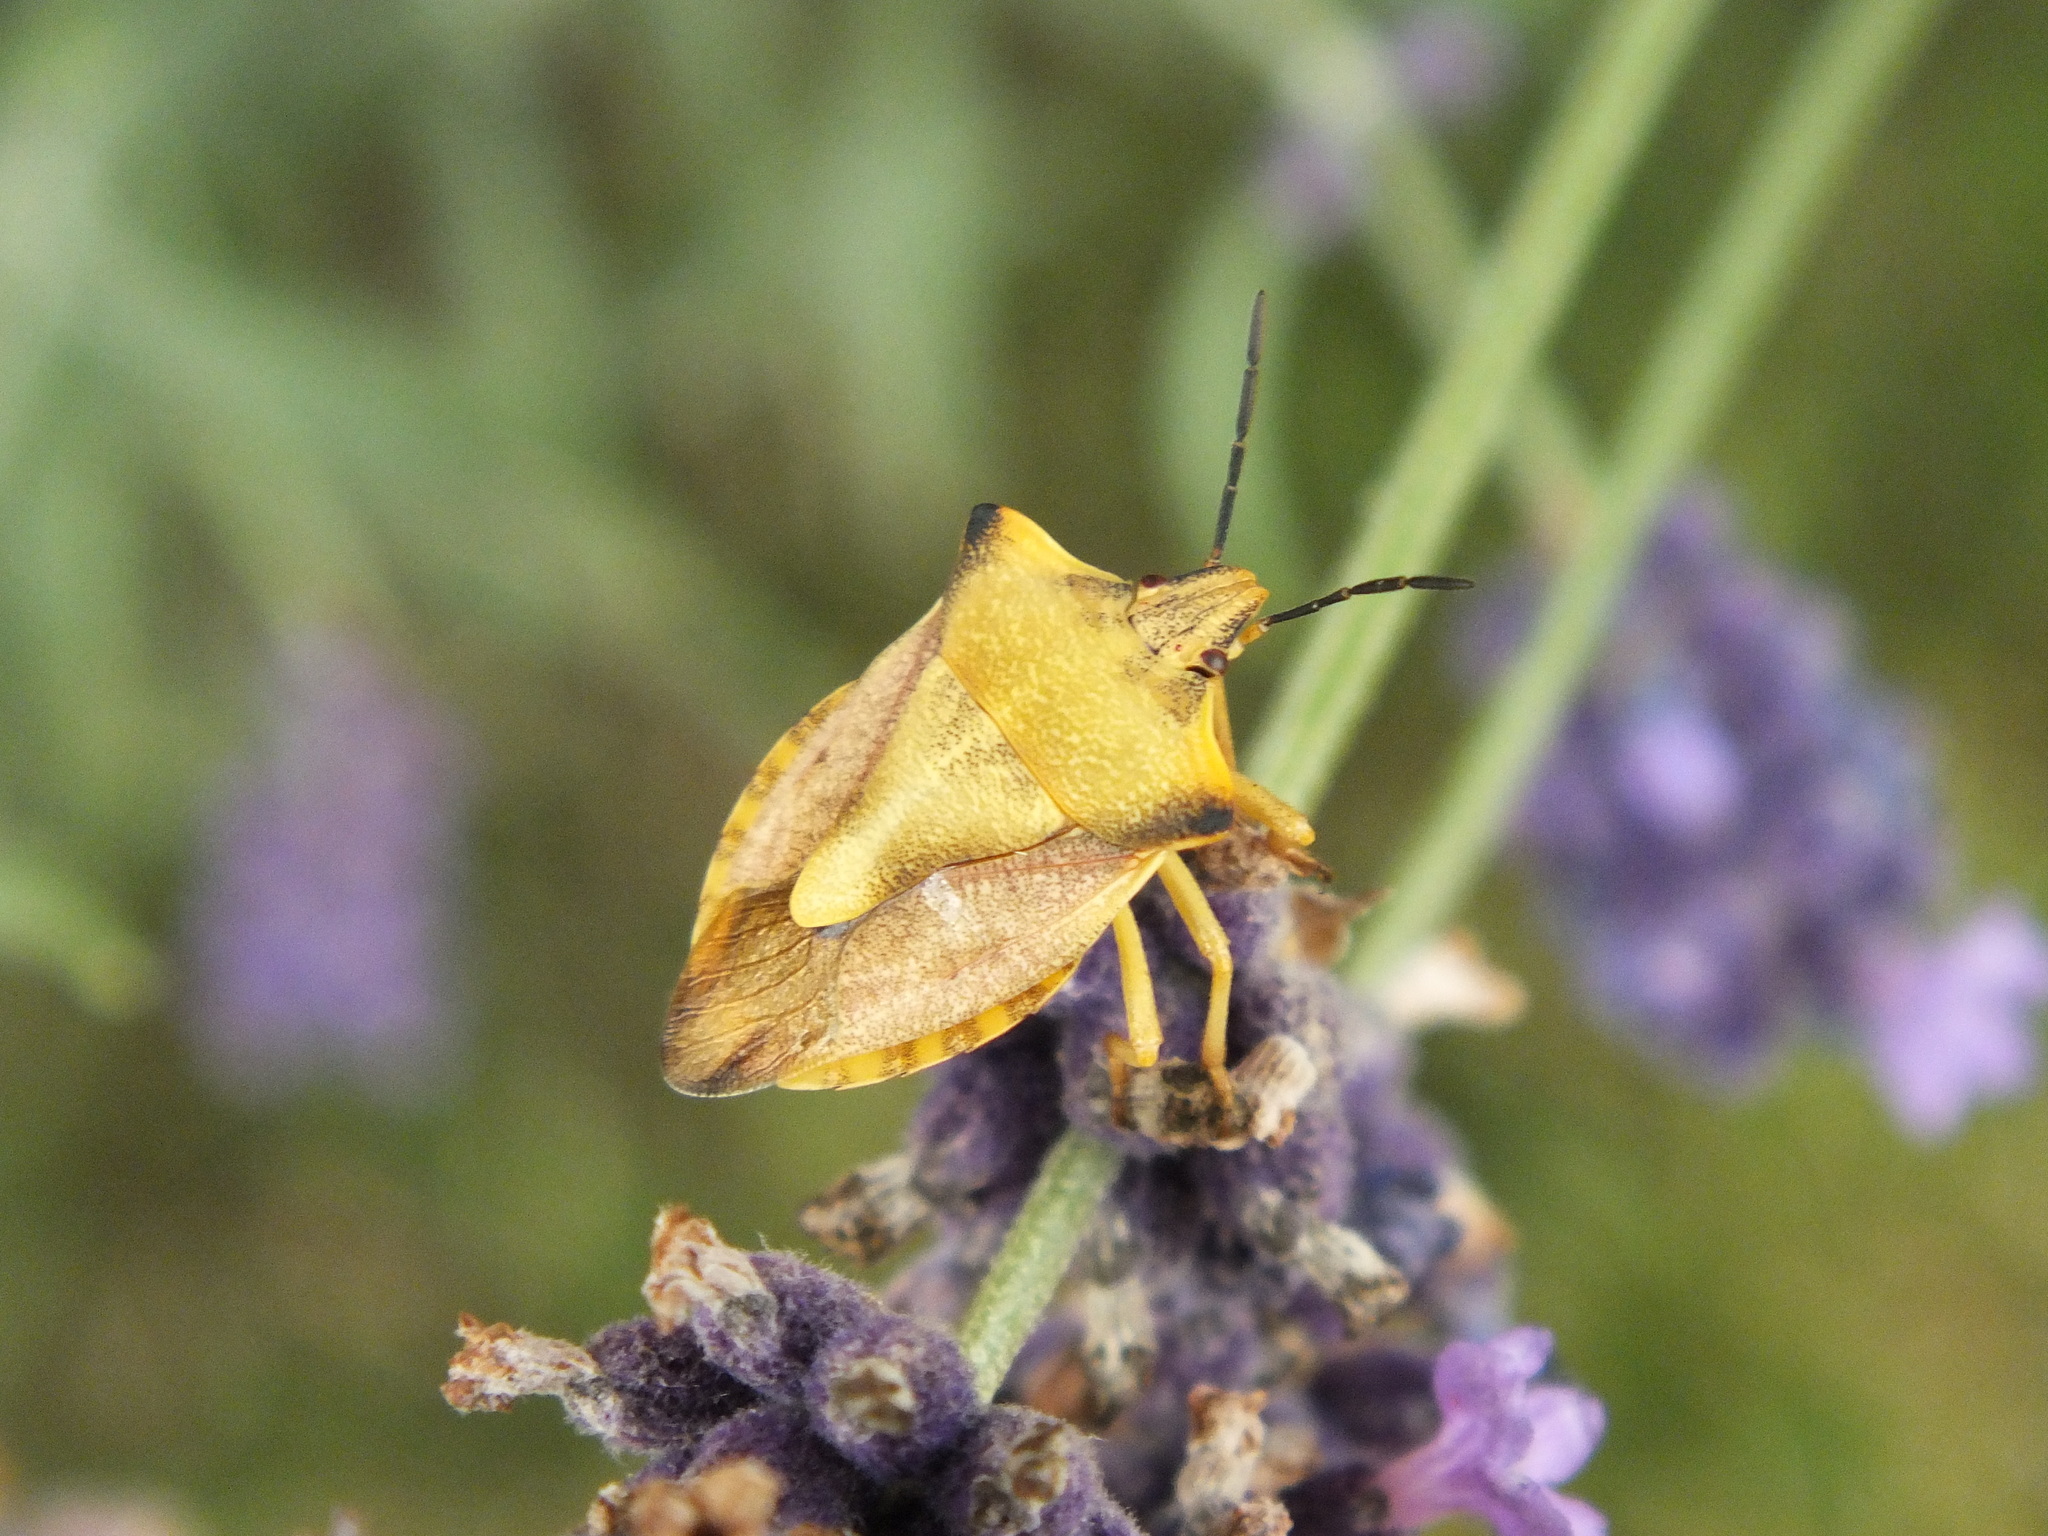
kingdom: Animalia
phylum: Arthropoda
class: Insecta
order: Hemiptera
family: Pentatomidae
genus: Carpocoris
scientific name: Carpocoris fuscispinus
